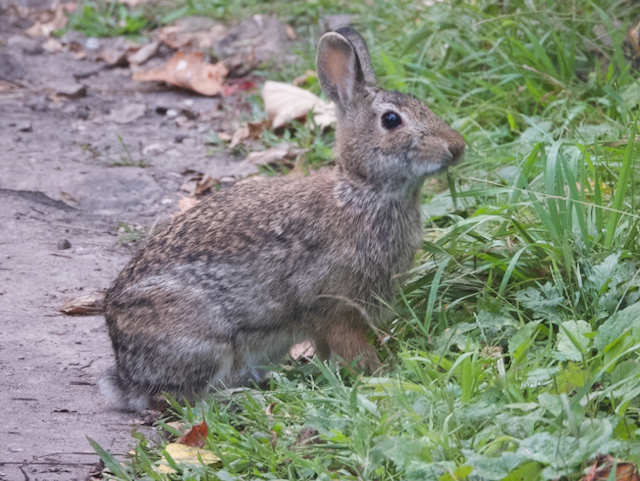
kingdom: Animalia
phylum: Chordata
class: Mammalia
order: Lagomorpha
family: Leporidae
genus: Sylvilagus
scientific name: Sylvilagus floridanus
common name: Eastern cottontail
